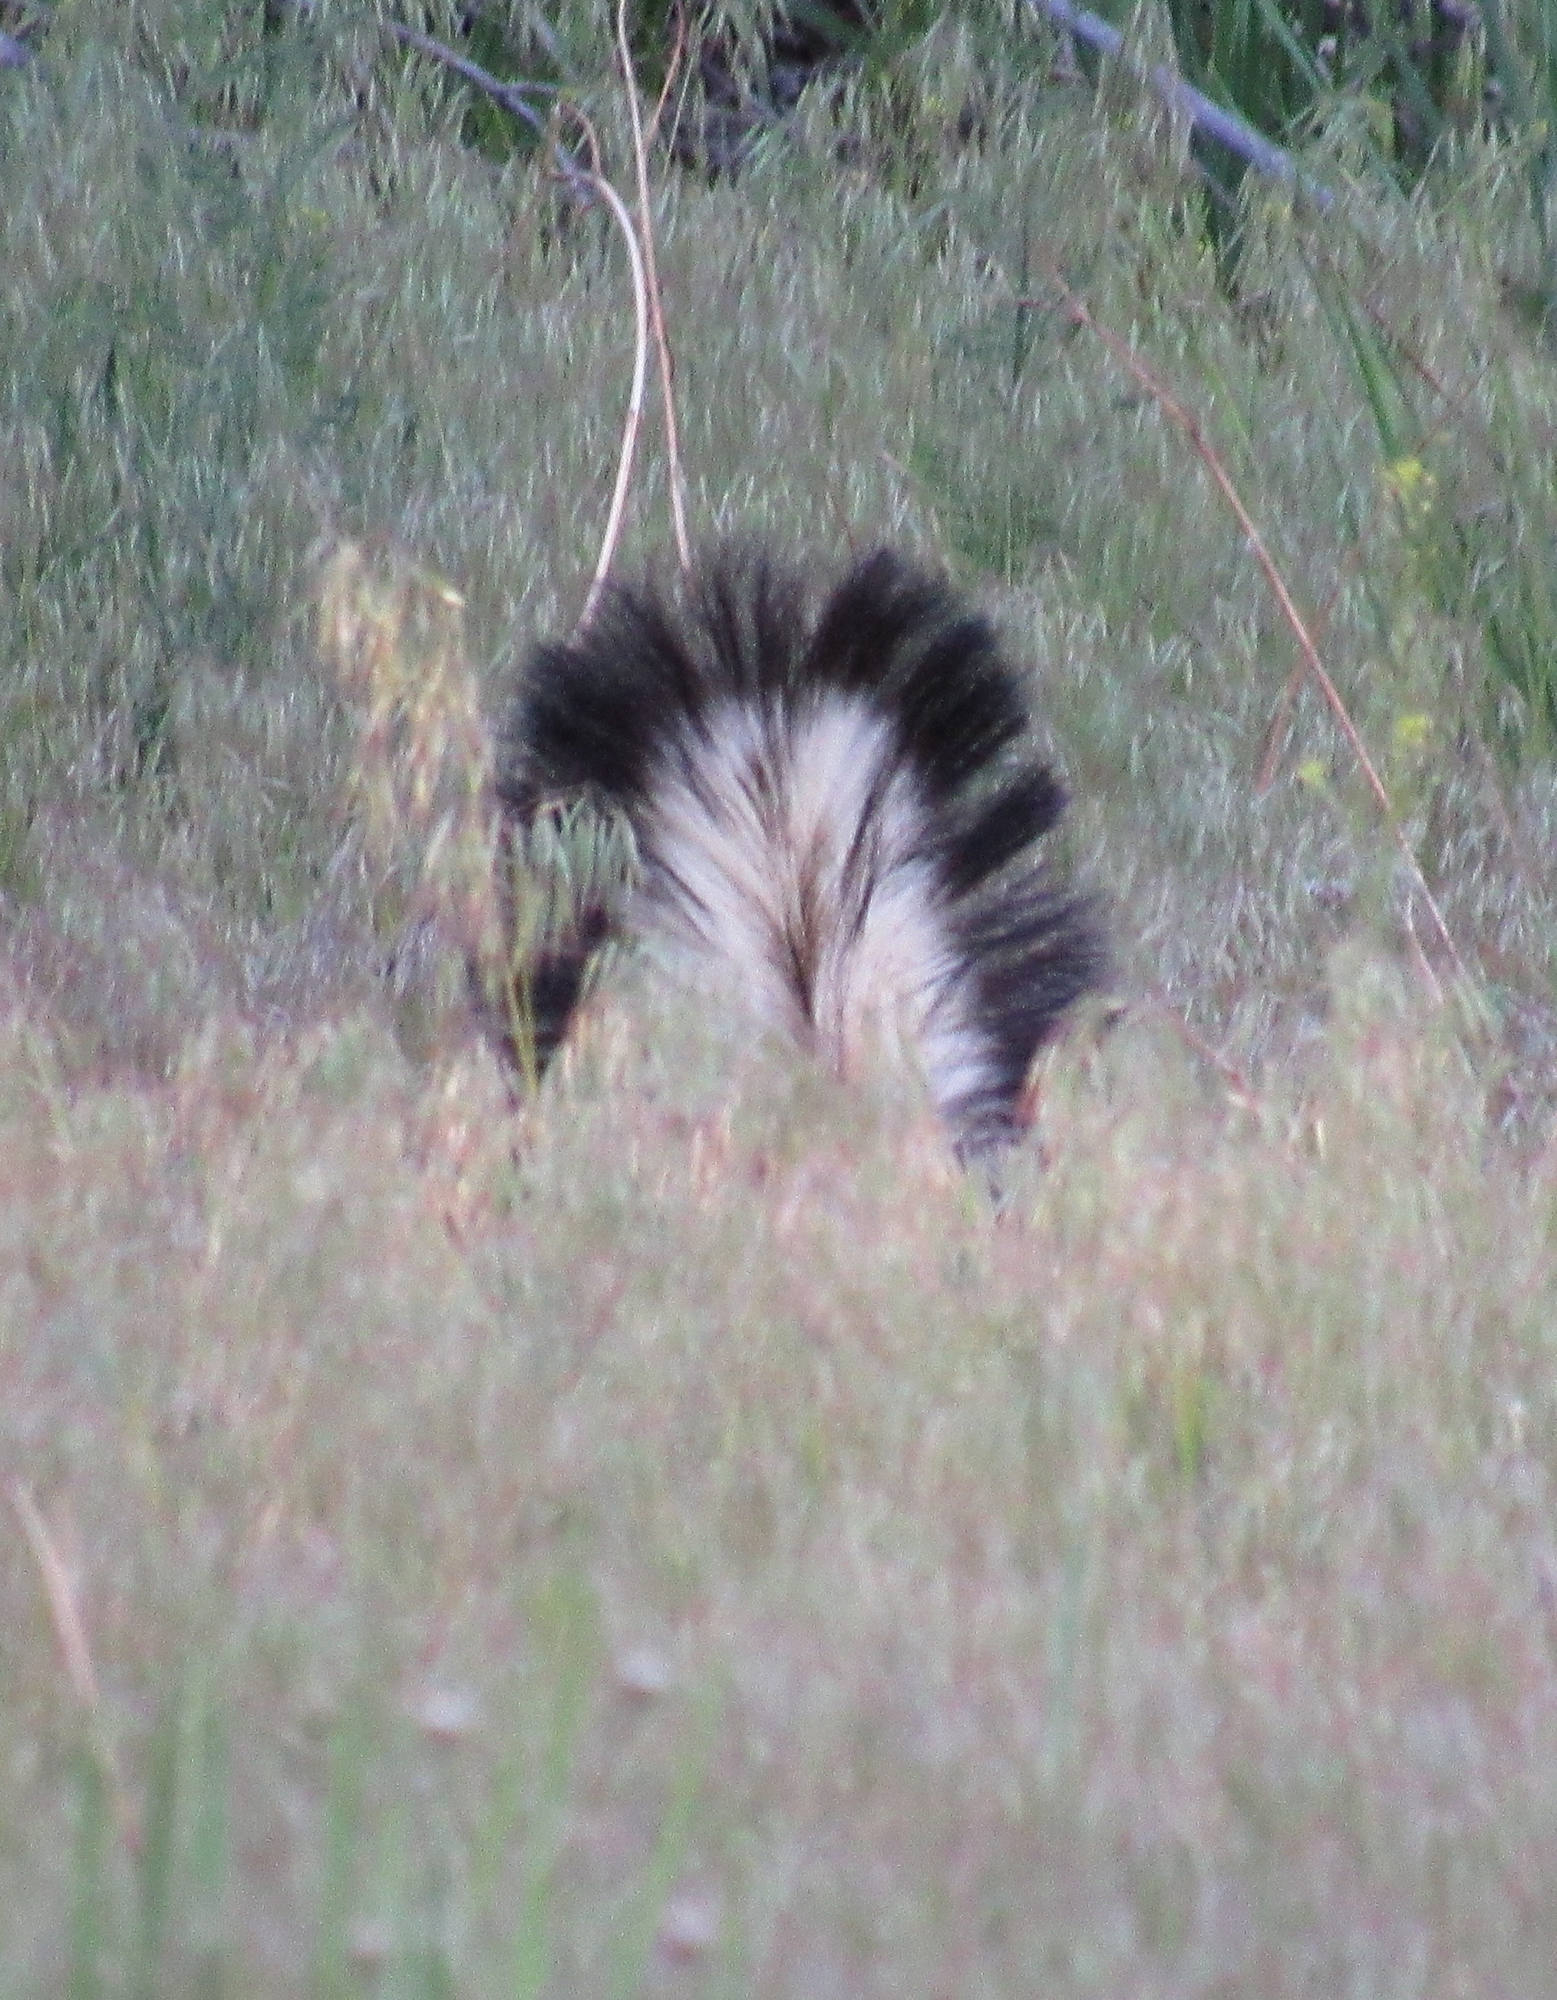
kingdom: Animalia
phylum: Chordata
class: Mammalia
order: Carnivora
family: Mephitidae
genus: Mephitis
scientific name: Mephitis mephitis
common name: Striped skunk
